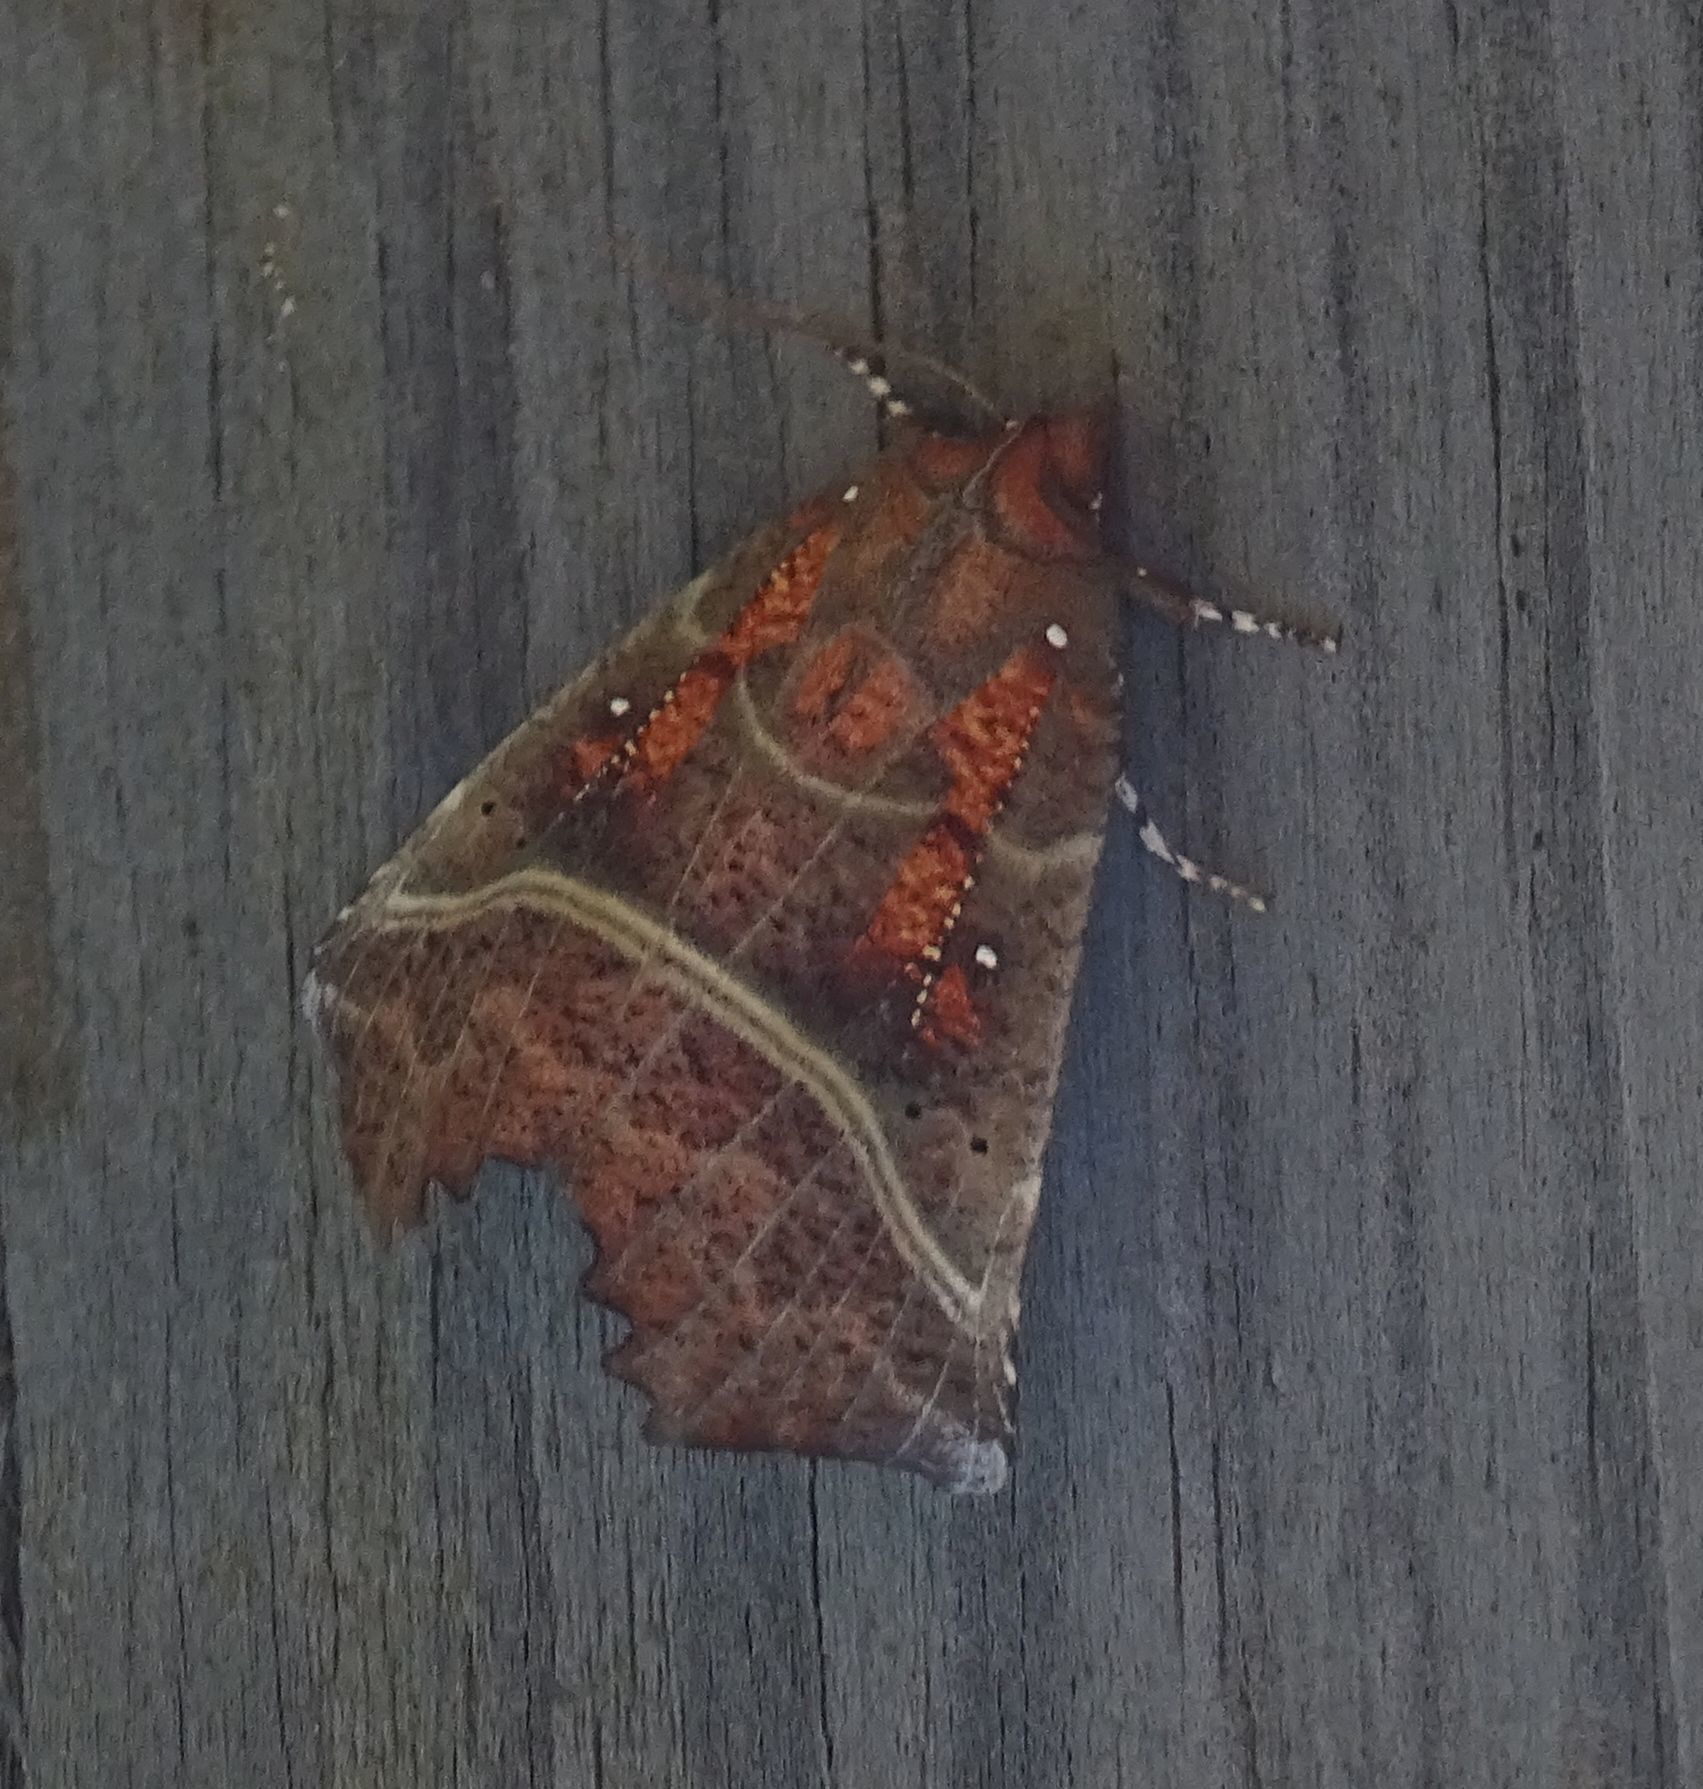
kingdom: Animalia
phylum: Arthropoda
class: Insecta
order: Lepidoptera
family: Erebidae
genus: Scoliopteryx
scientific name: Scoliopteryx libatrix
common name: Herald
